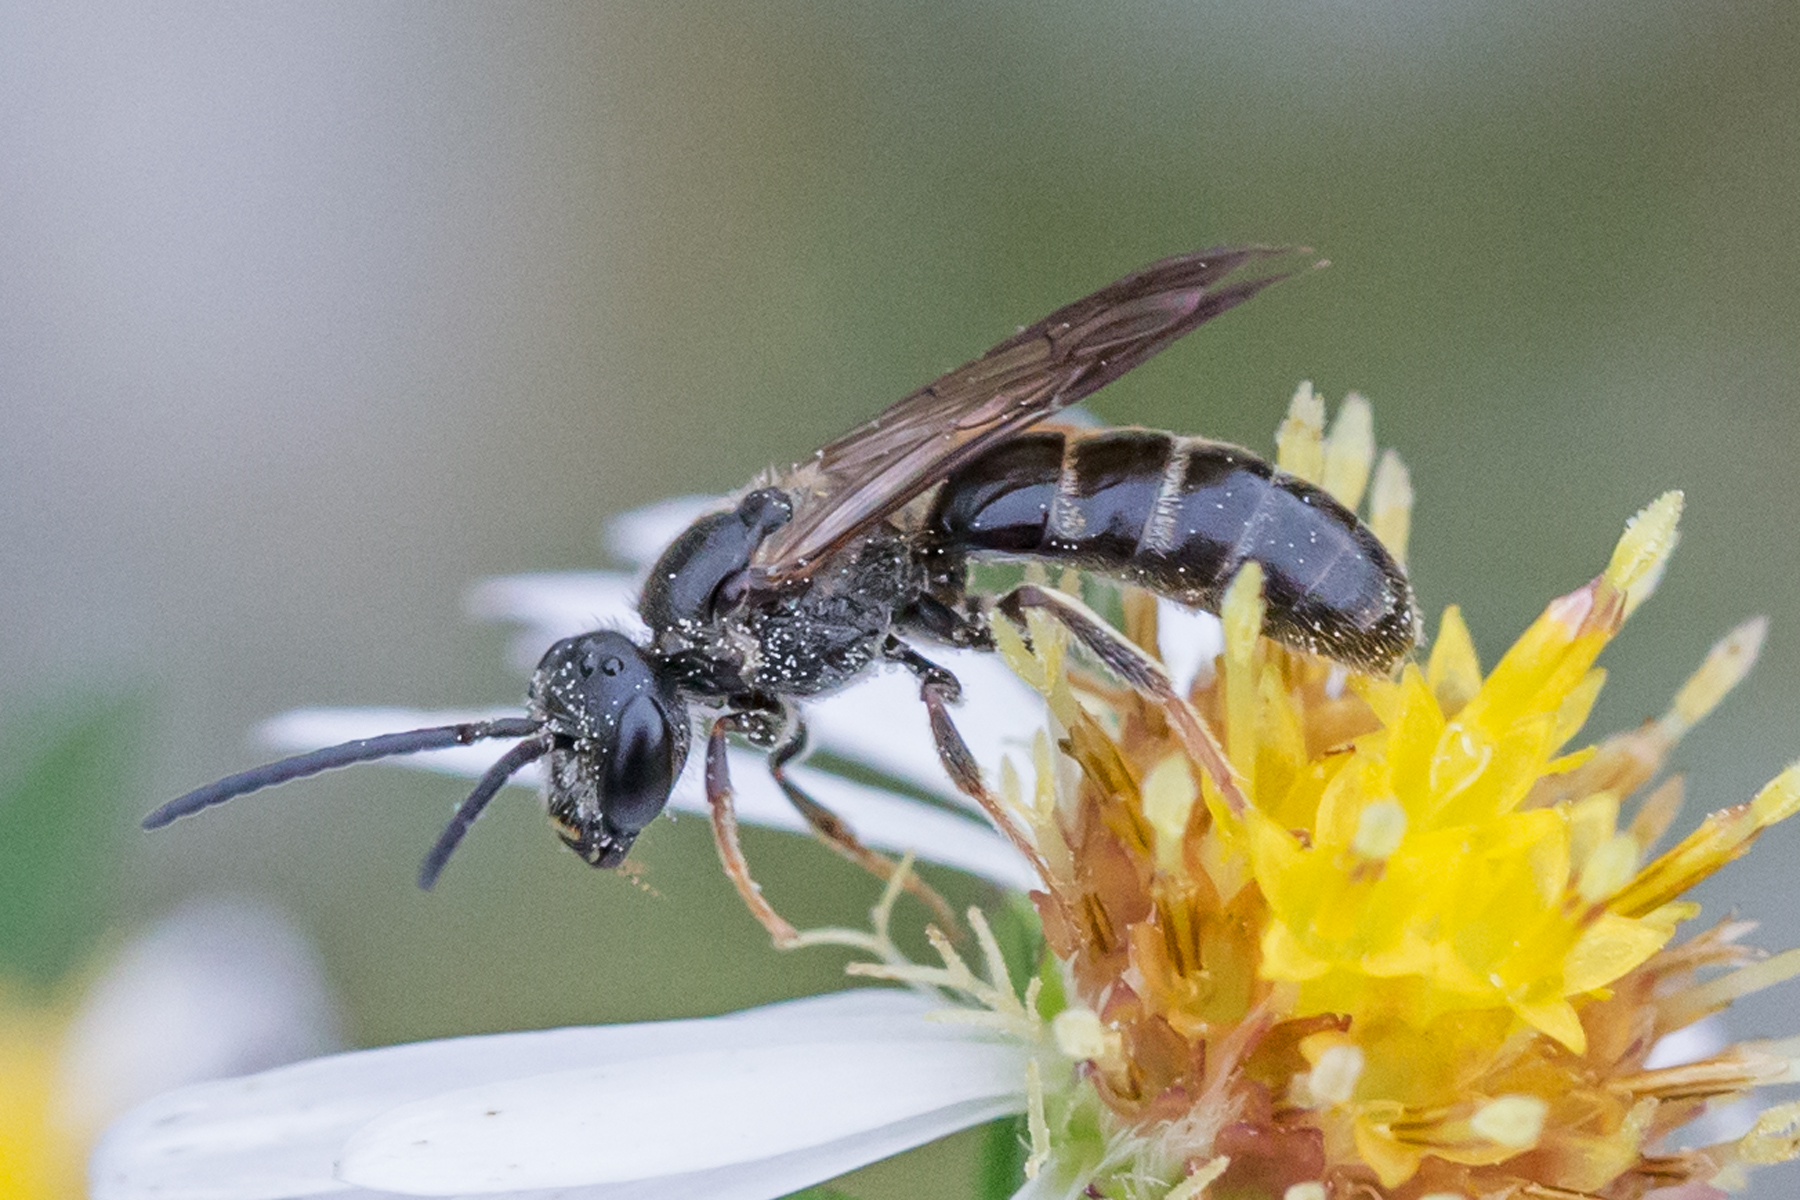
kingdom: Animalia
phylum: Arthropoda
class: Insecta
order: Hymenoptera
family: Halictidae
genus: Lasioglossum
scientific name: Lasioglossum fuscipenne
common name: Brown-winged sweat bee
